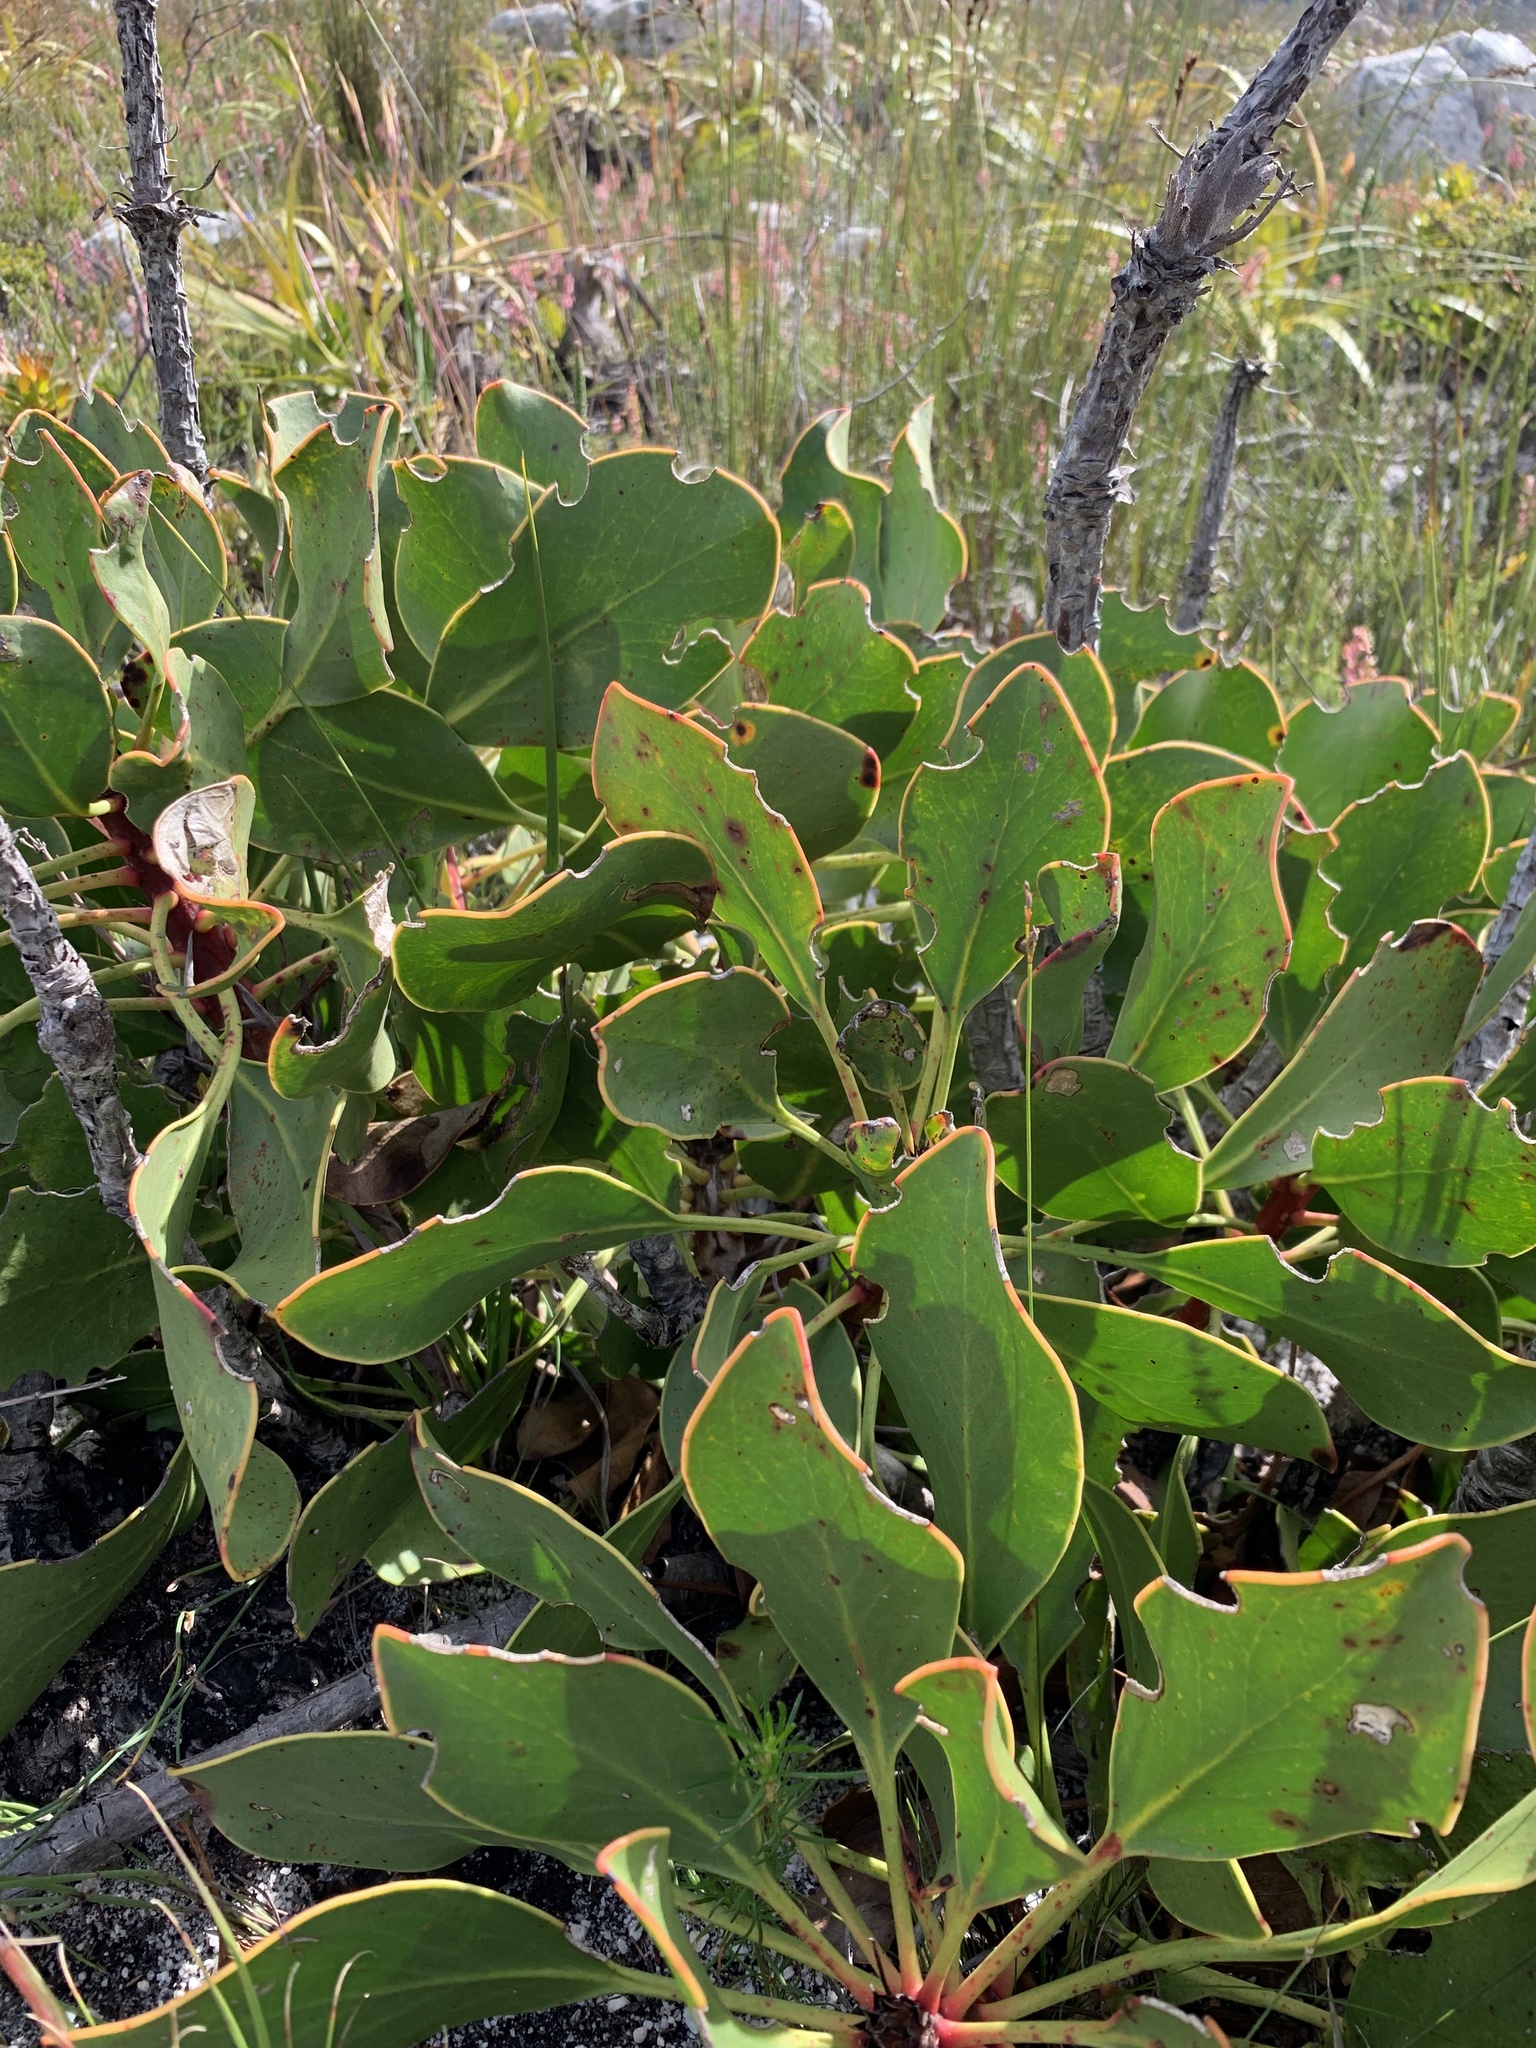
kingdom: Plantae
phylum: Tracheophyta
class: Magnoliopsida
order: Proteales
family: Proteaceae
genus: Protea
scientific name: Protea cynaroides
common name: King protea
